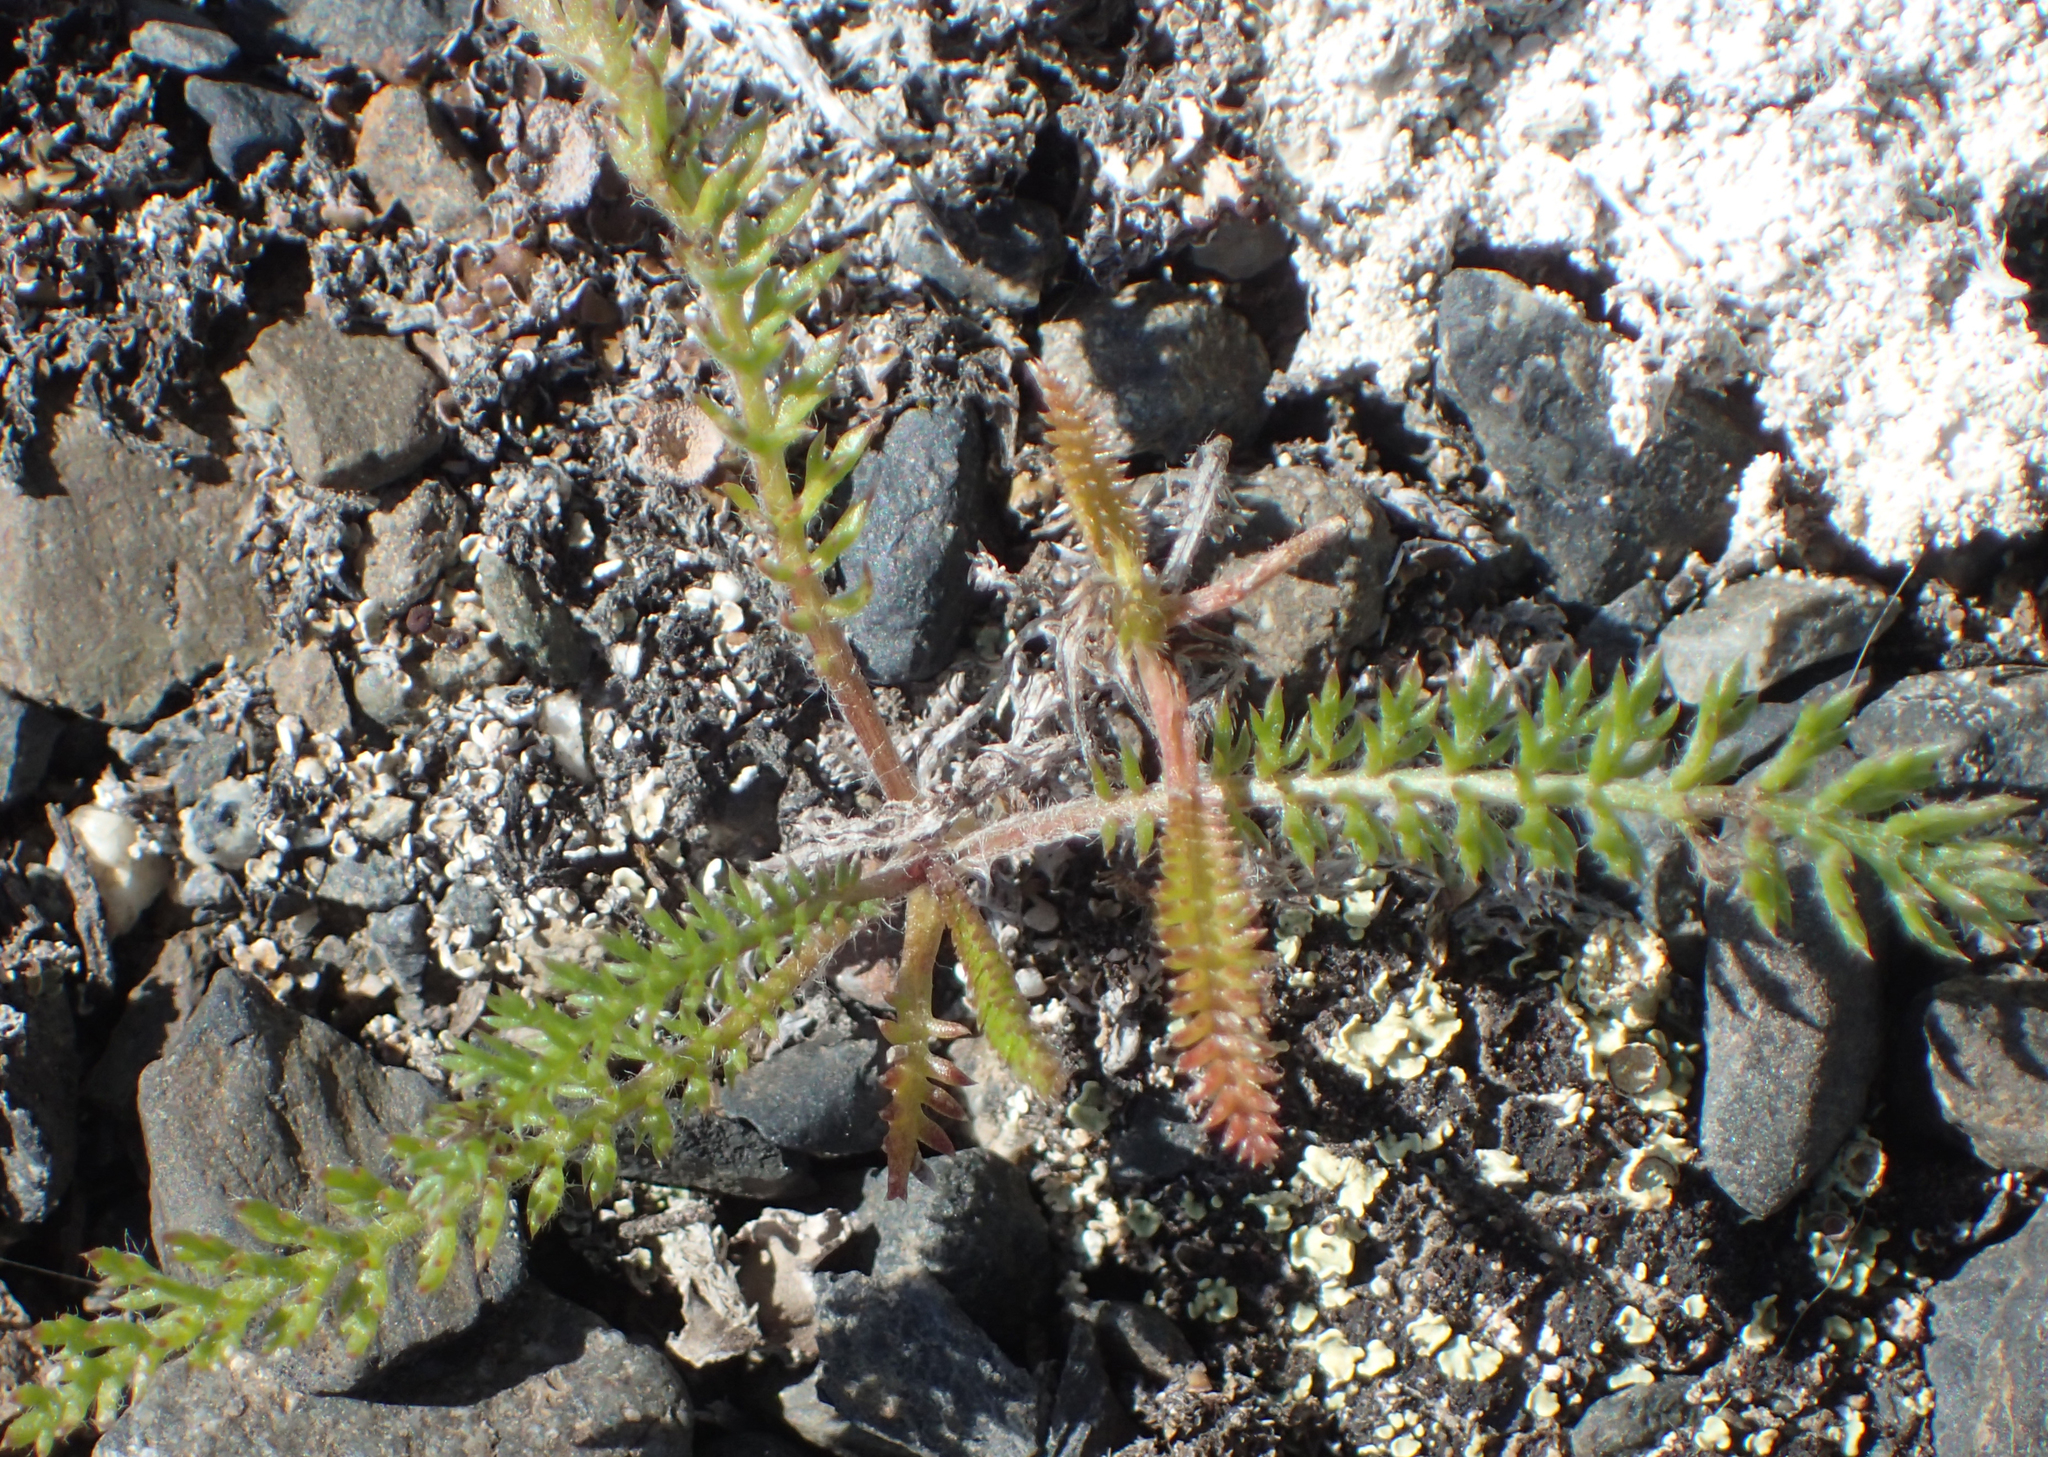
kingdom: Plantae
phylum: Tracheophyta
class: Magnoliopsida
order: Asterales
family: Asteraceae
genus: Achillea
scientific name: Achillea millefolium
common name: Yarrow
